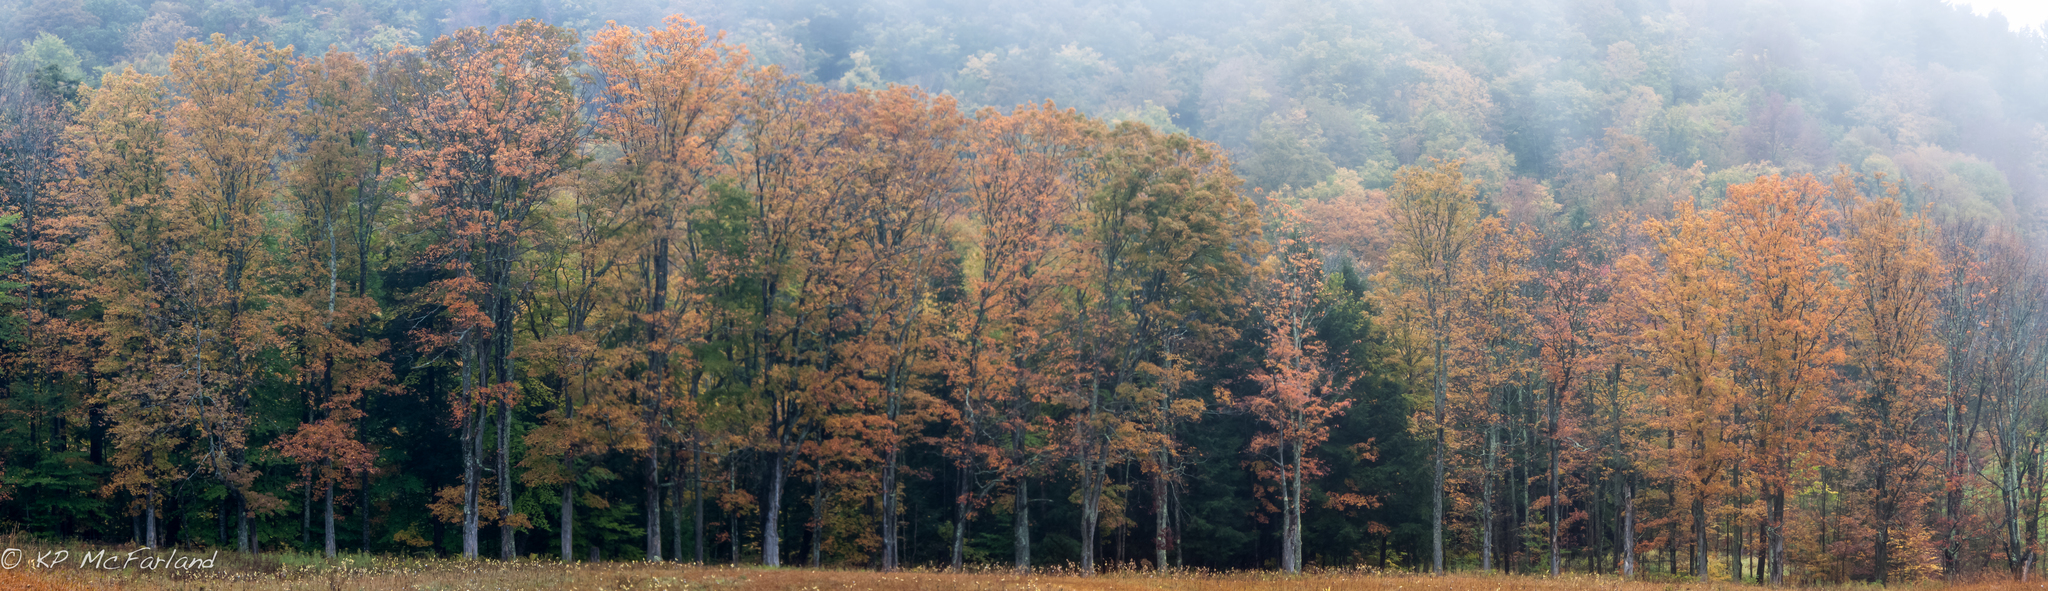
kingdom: Plantae
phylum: Tracheophyta
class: Magnoliopsida
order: Sapindales
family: Sapindaceae
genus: Acer
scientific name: Acer saccharum
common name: Sugar maple
